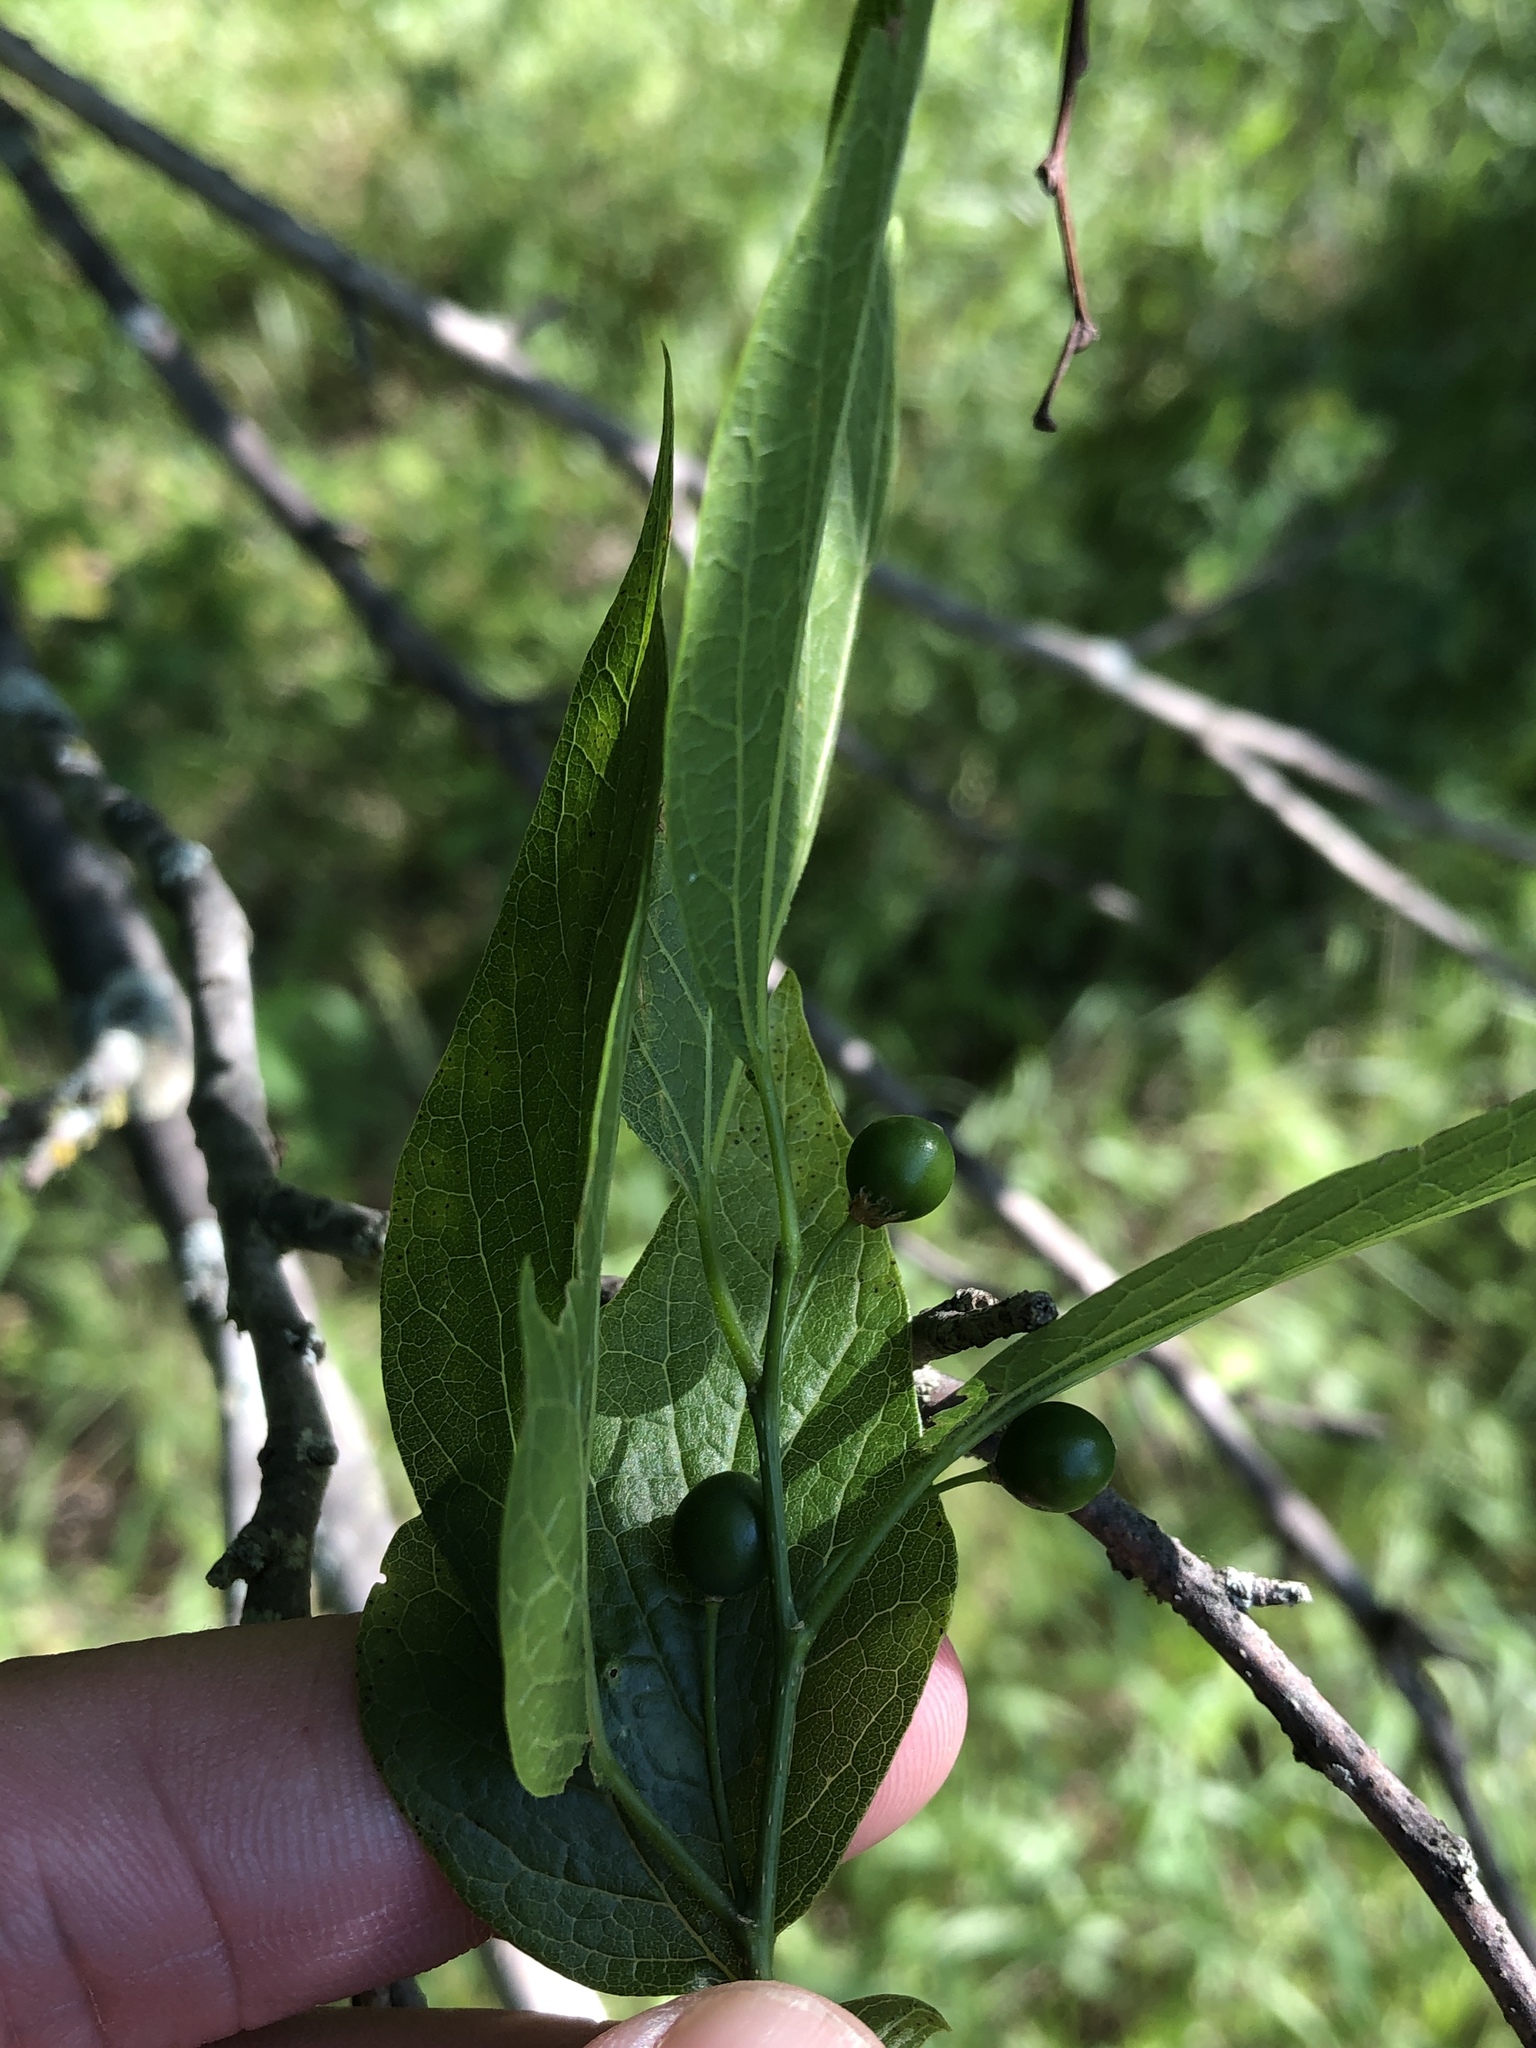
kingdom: Plantae
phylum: Tracheophyta
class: Magnoliopsida
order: Rosales
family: Cannabaceae
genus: Celtis
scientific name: Celtis laevigata
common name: Sugarberry
